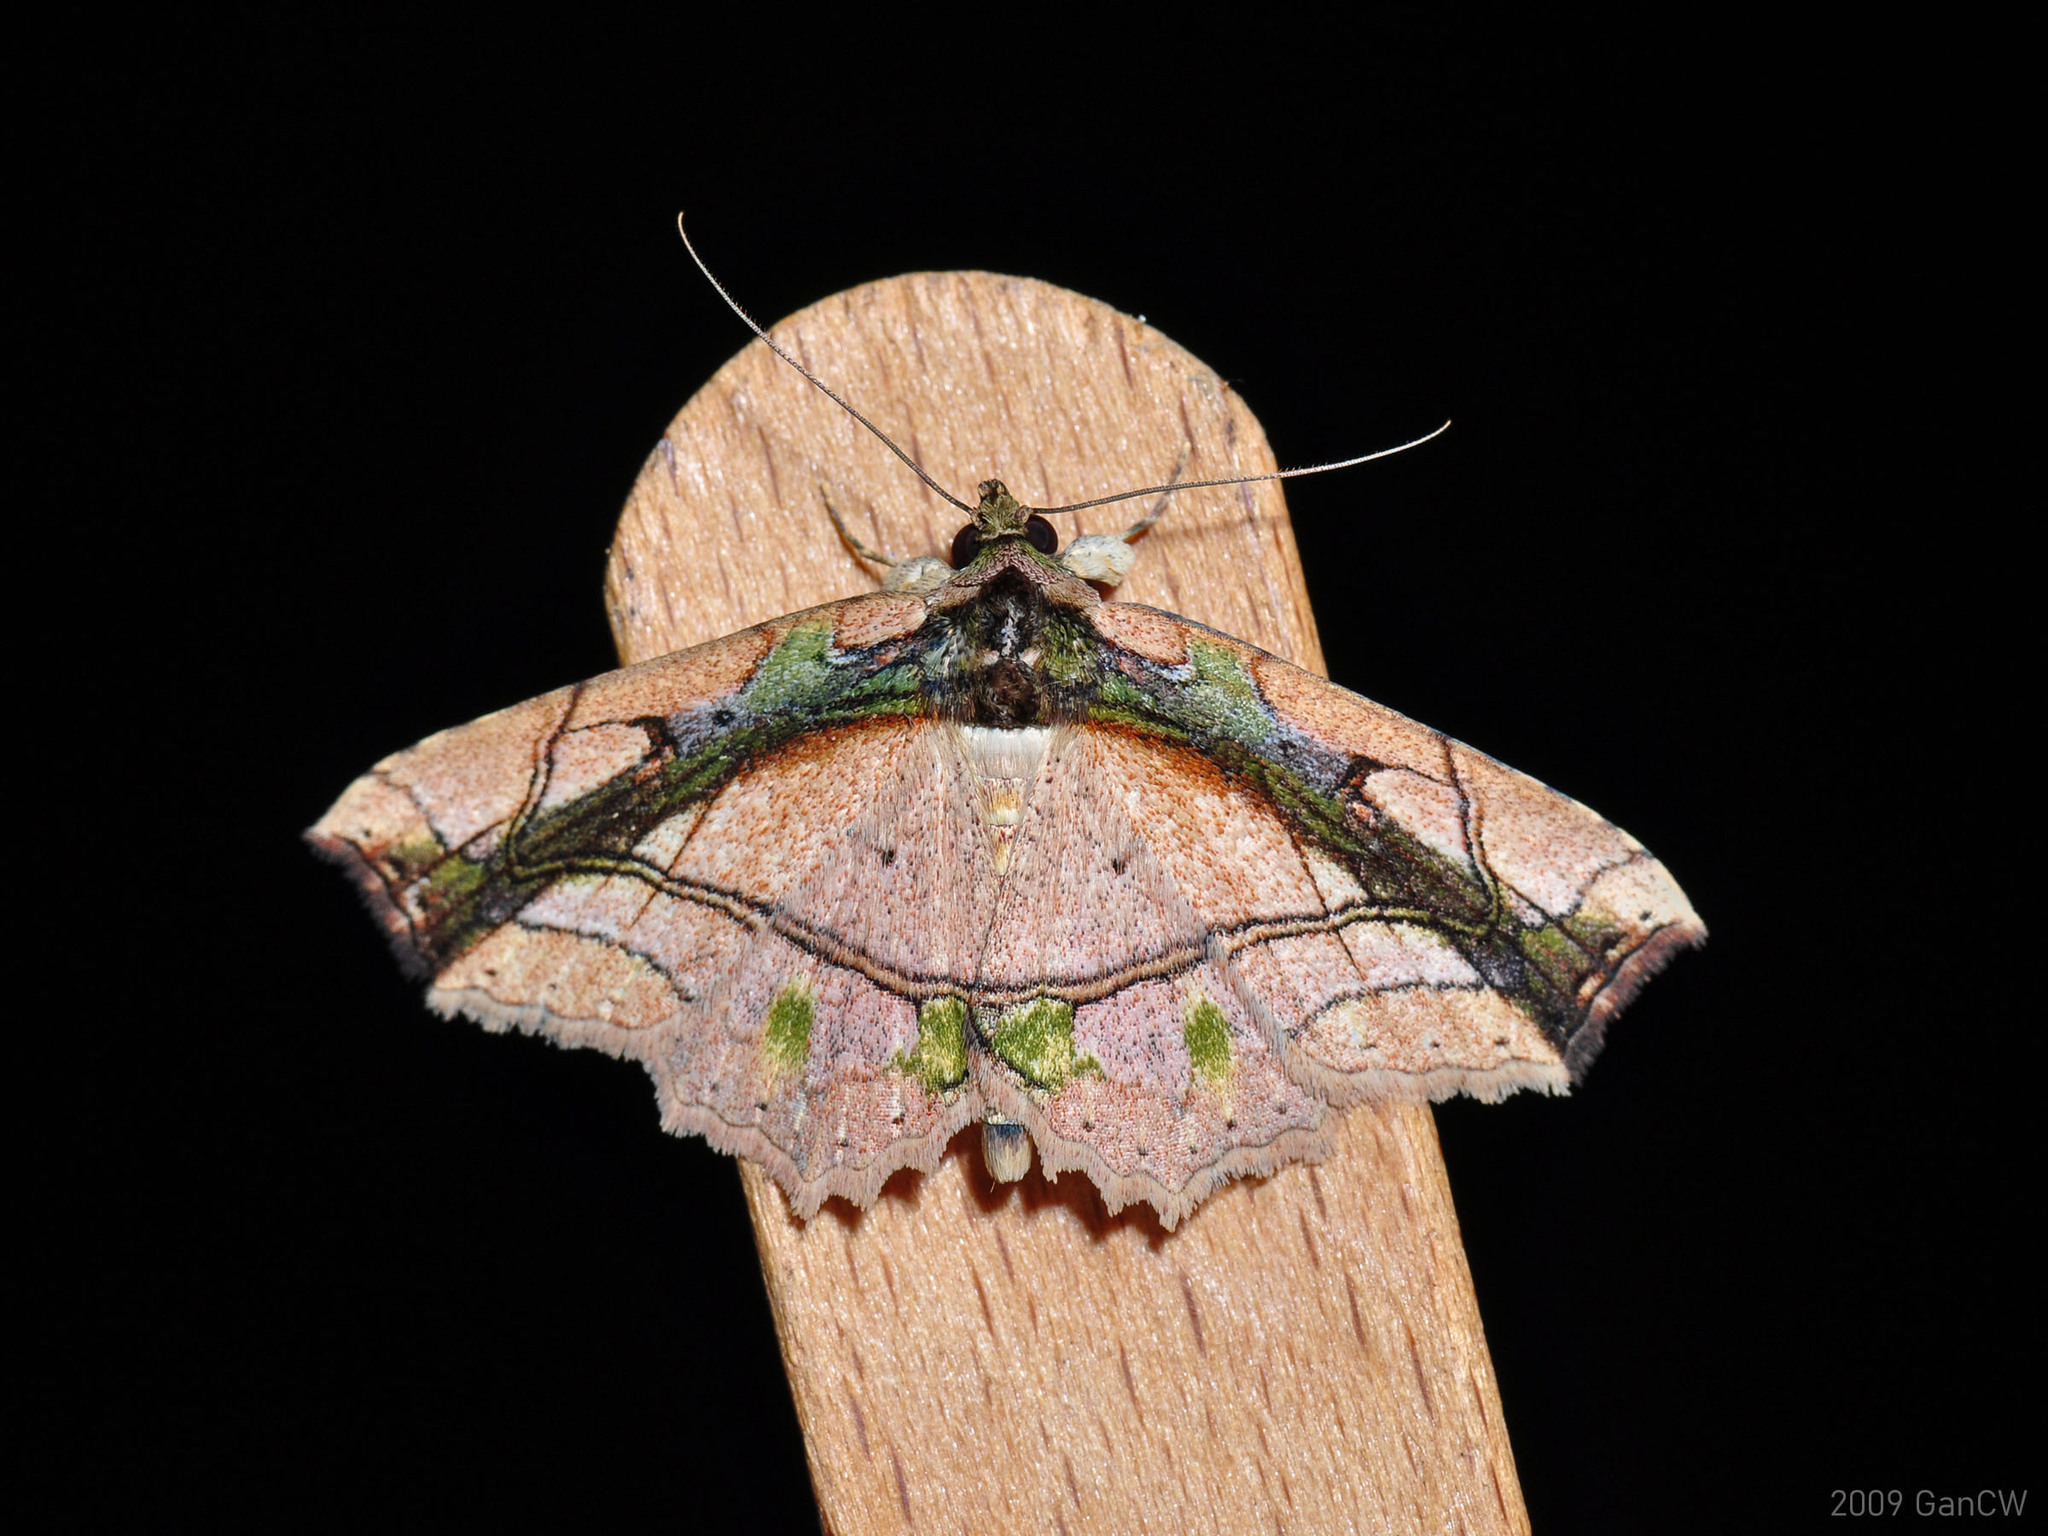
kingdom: Animalia
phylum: Arthropoda
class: Insecta
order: Lepidoptera
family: Erebidae
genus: Tamba
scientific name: Tamba lala
